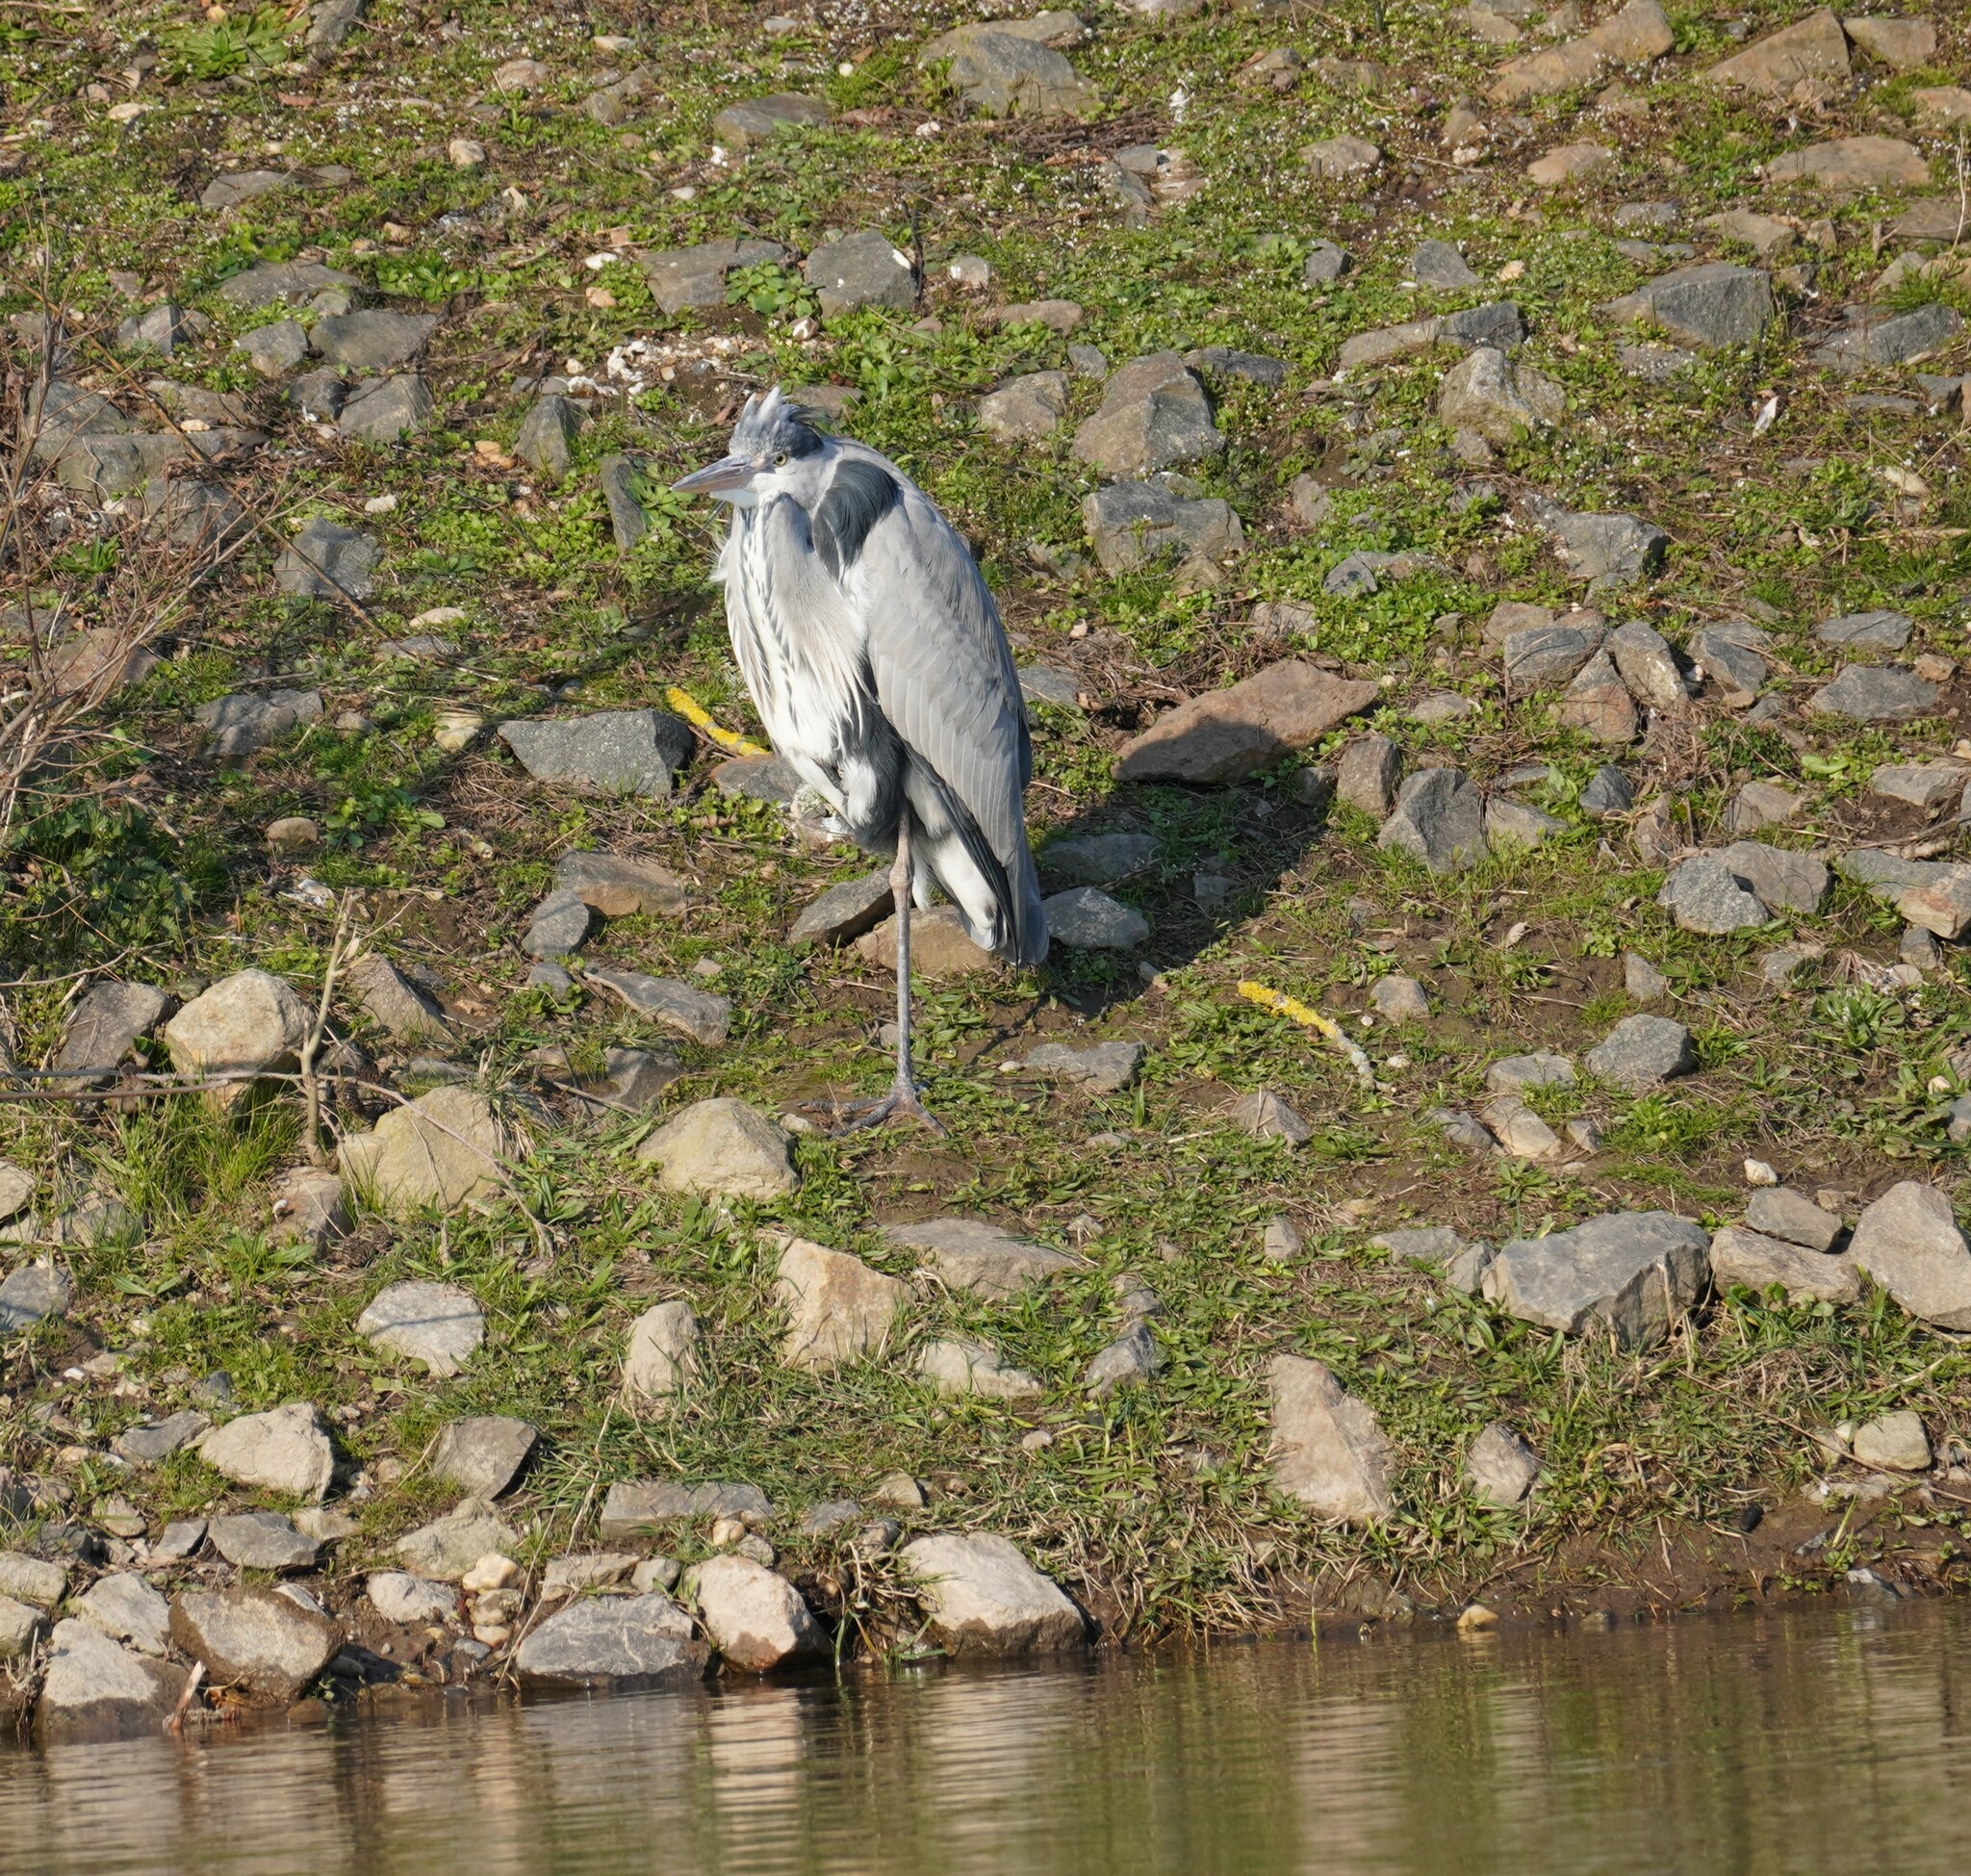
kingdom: Animalia
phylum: Chordata
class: Aves
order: Pelecaniformes
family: Ardeidae
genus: Ardea
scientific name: Ardea cinerea
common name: Grey heron
